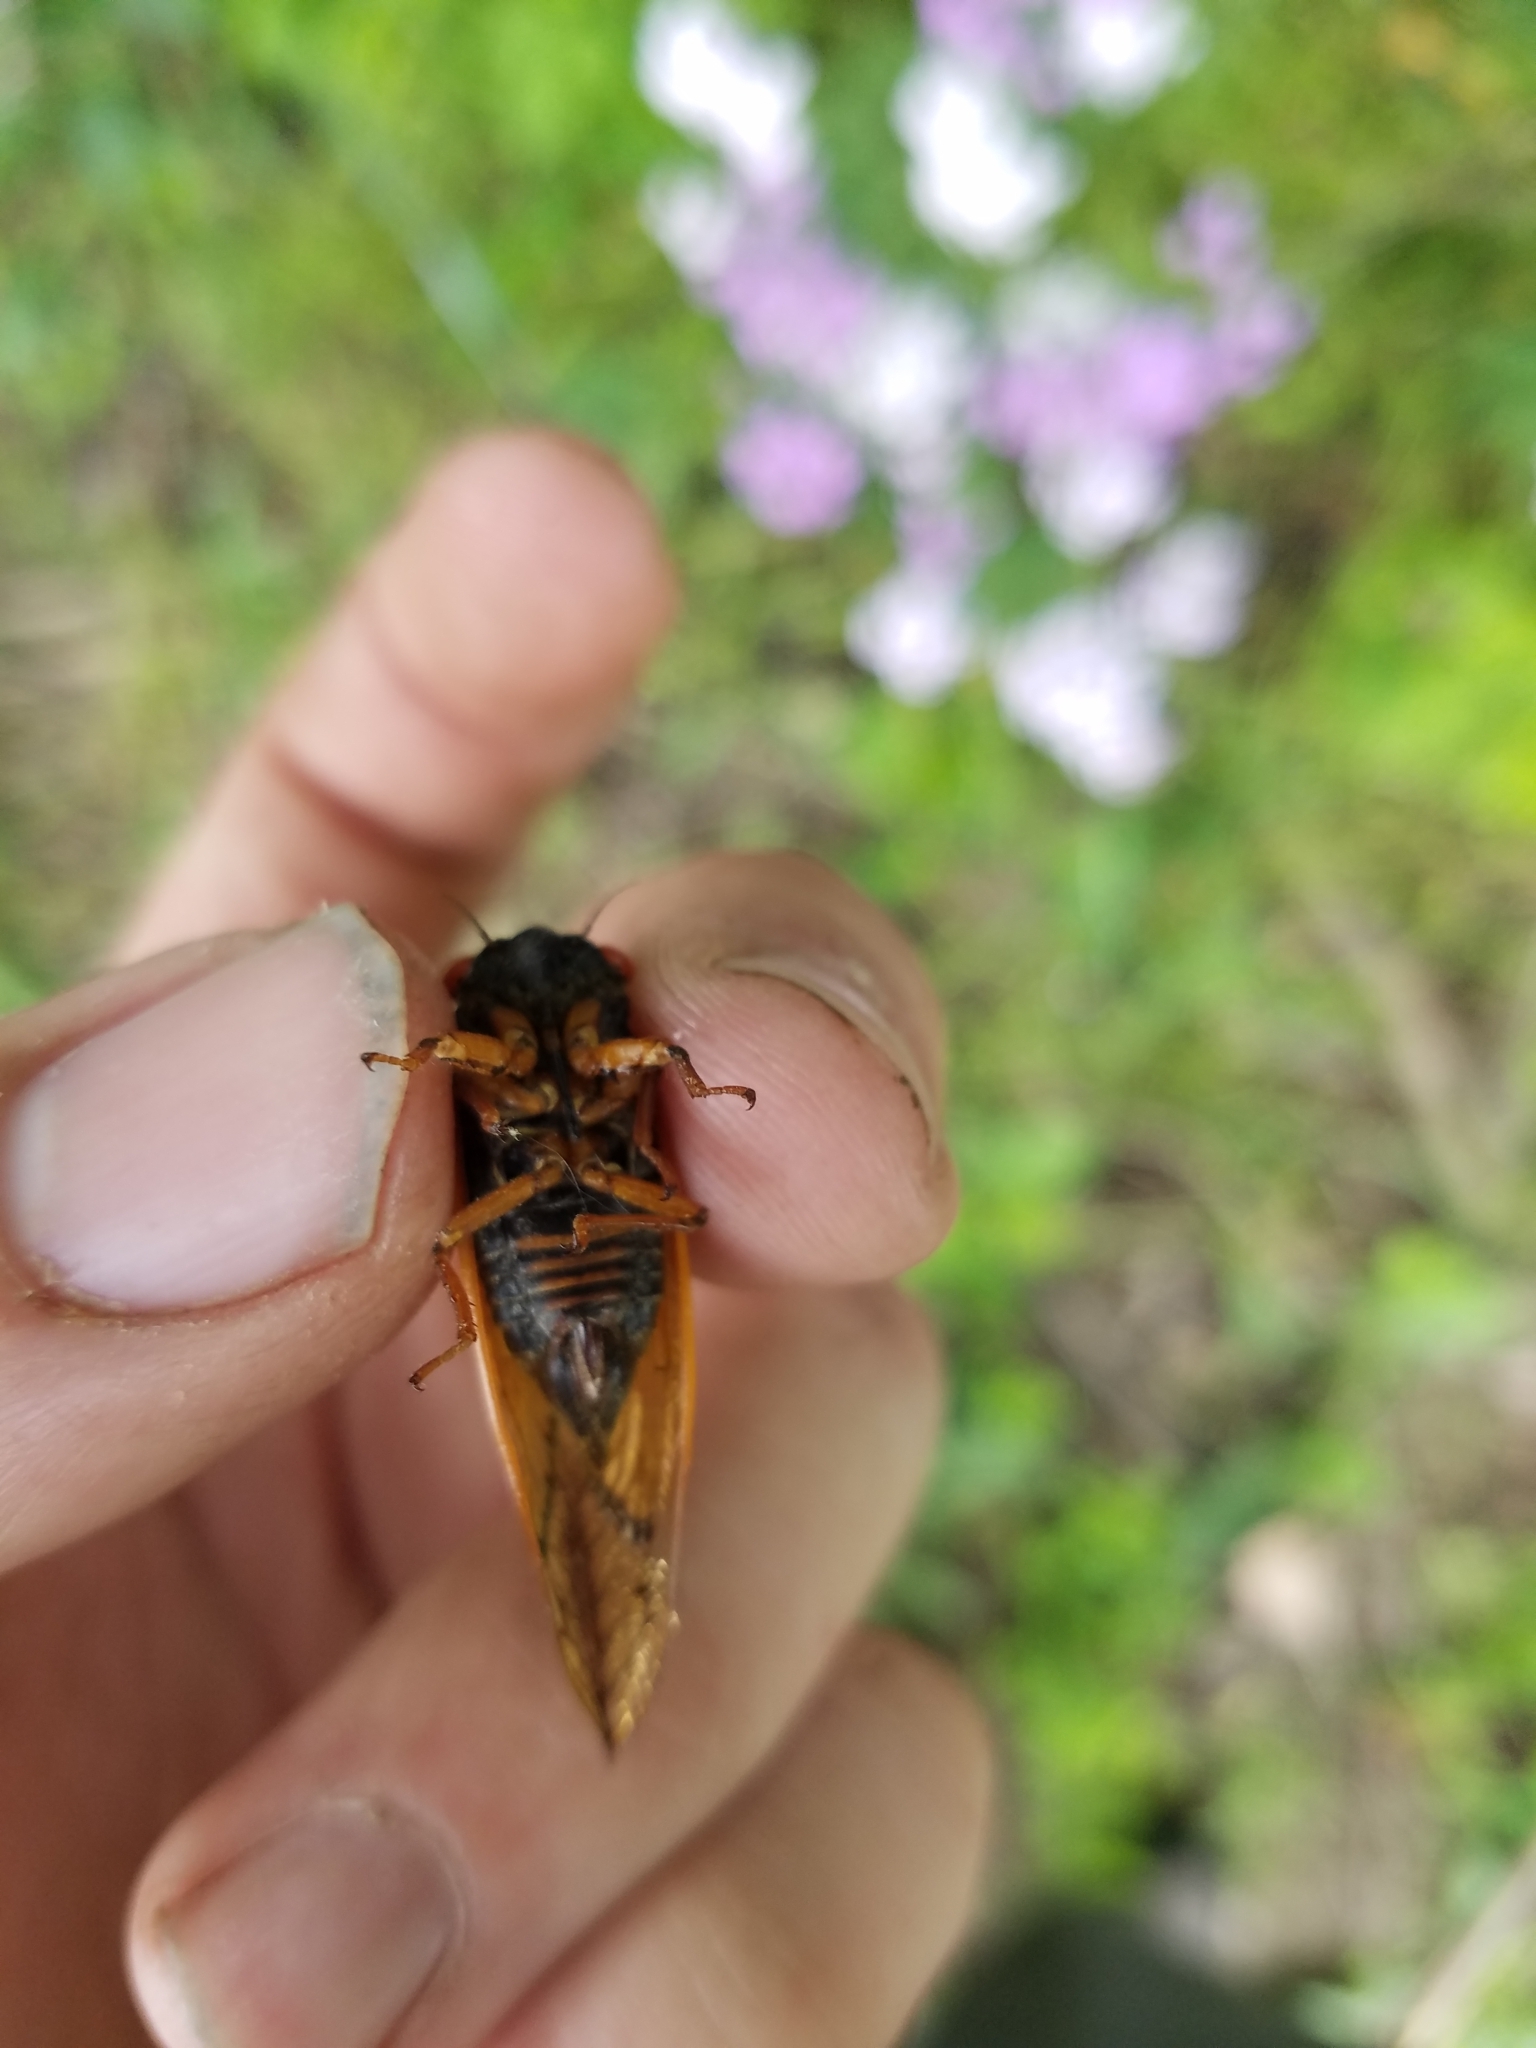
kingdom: Animalia
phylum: Arthropoda
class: Insecta
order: Hemiptera
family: Cicadidae
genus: Magicicada
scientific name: Magicicada septendecula
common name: Decula periodical cicada
